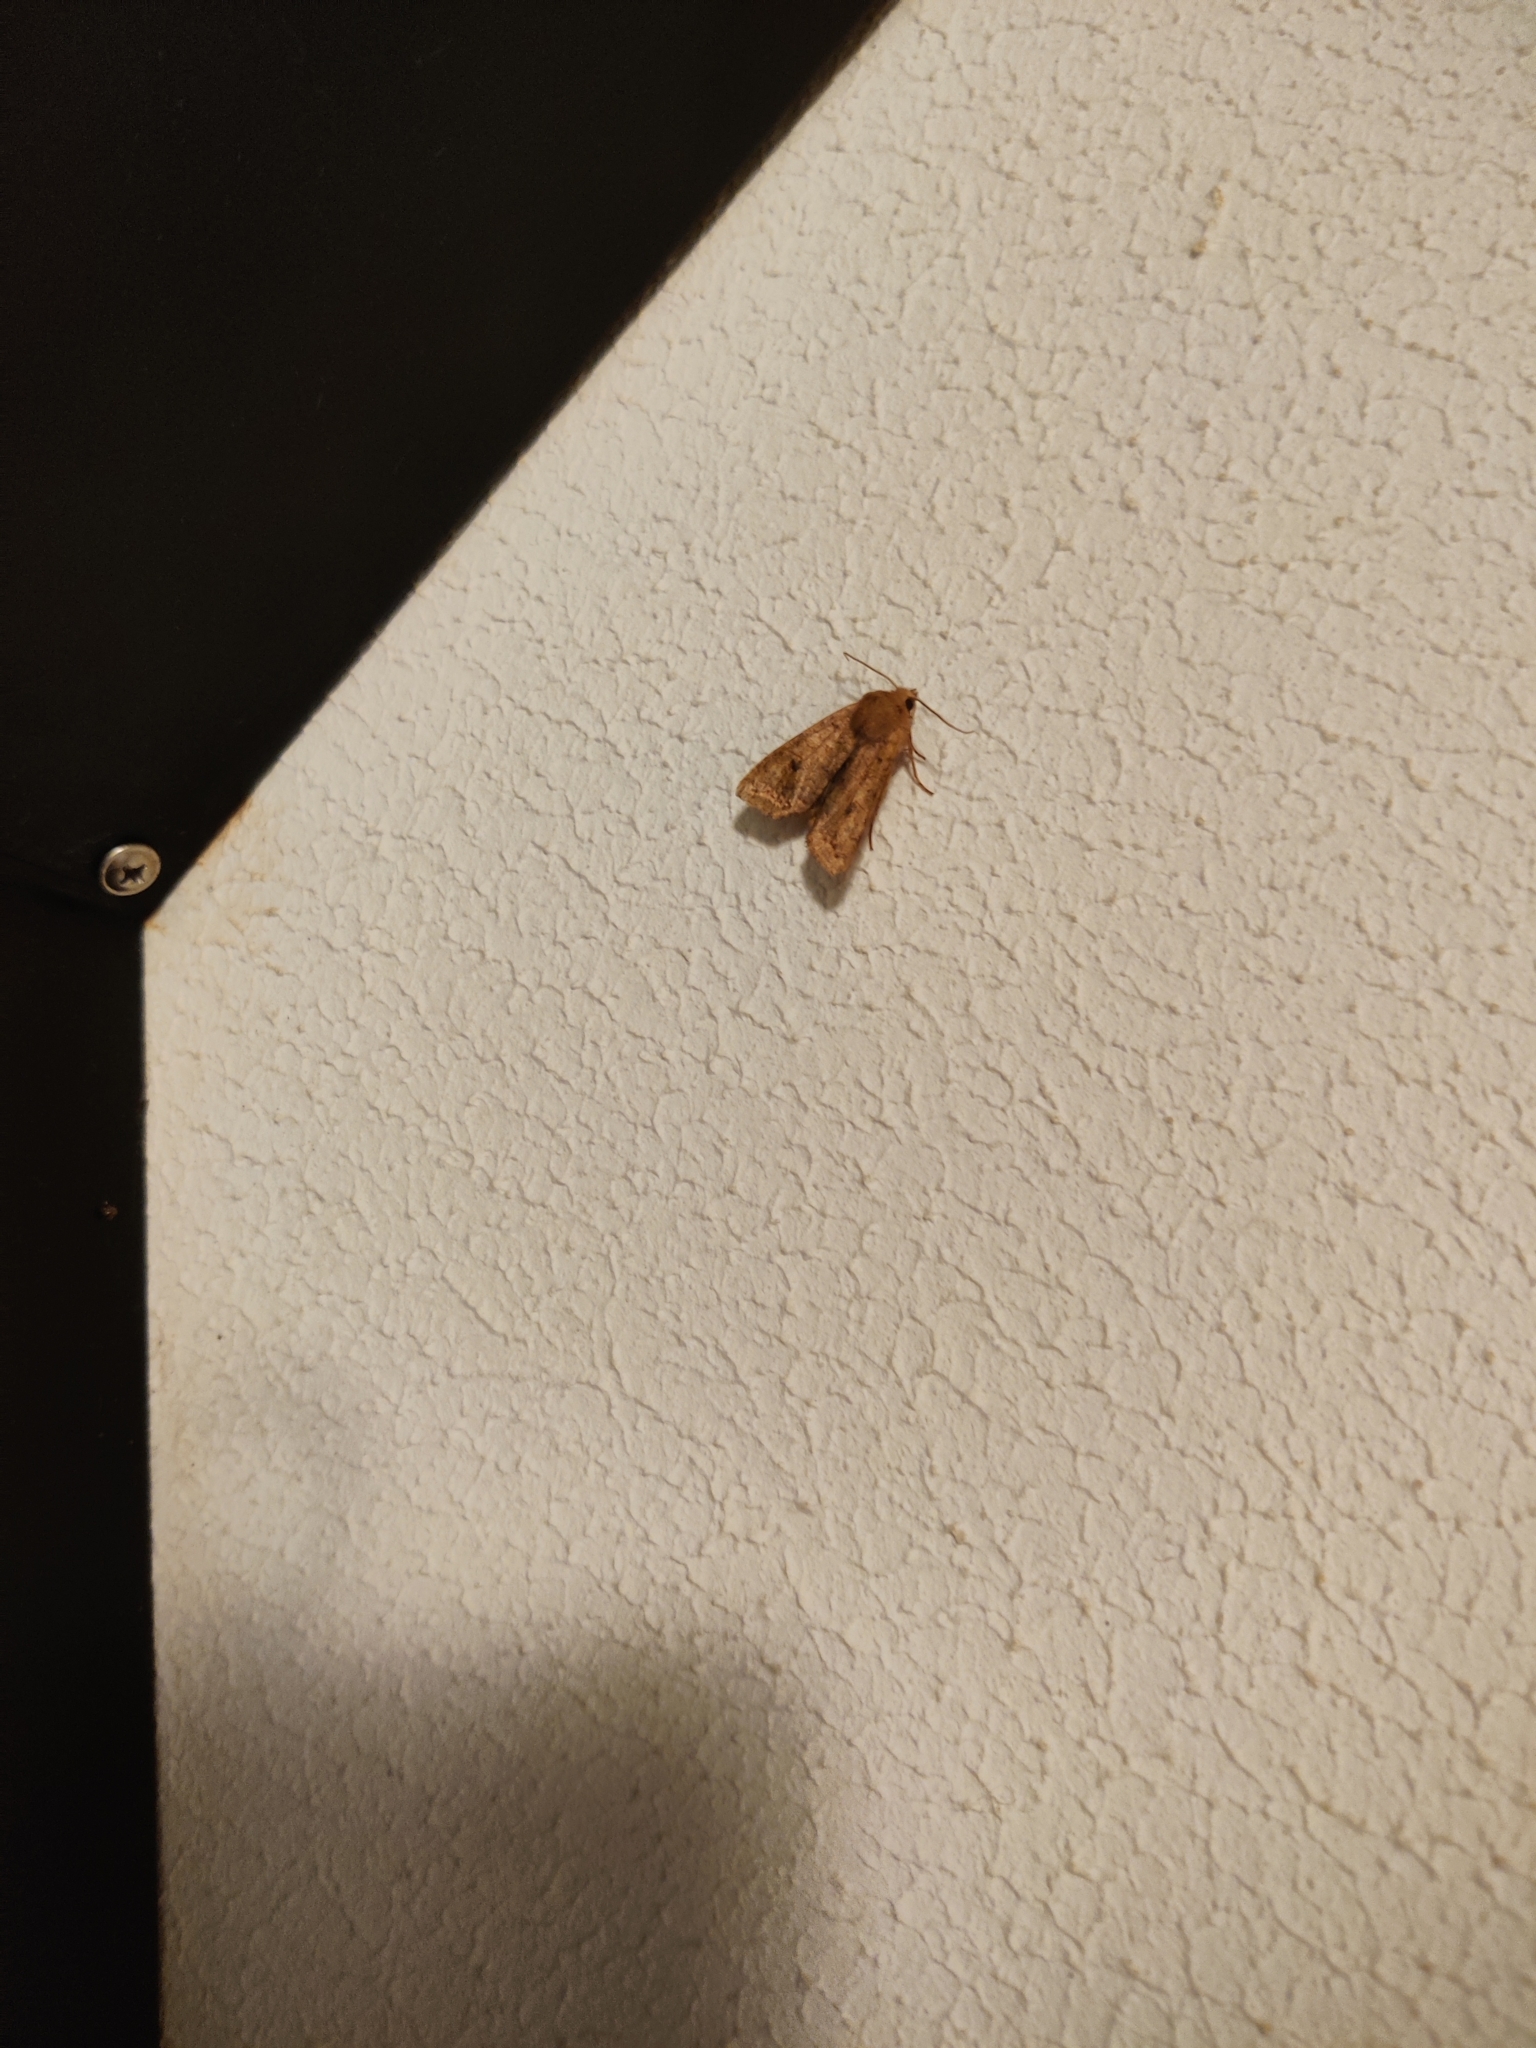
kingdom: Animalia
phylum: Arthropoda
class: Insecta
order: Lepidoptera
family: Noctuidae
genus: Sunira
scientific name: Sunira circellaris
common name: Brick
